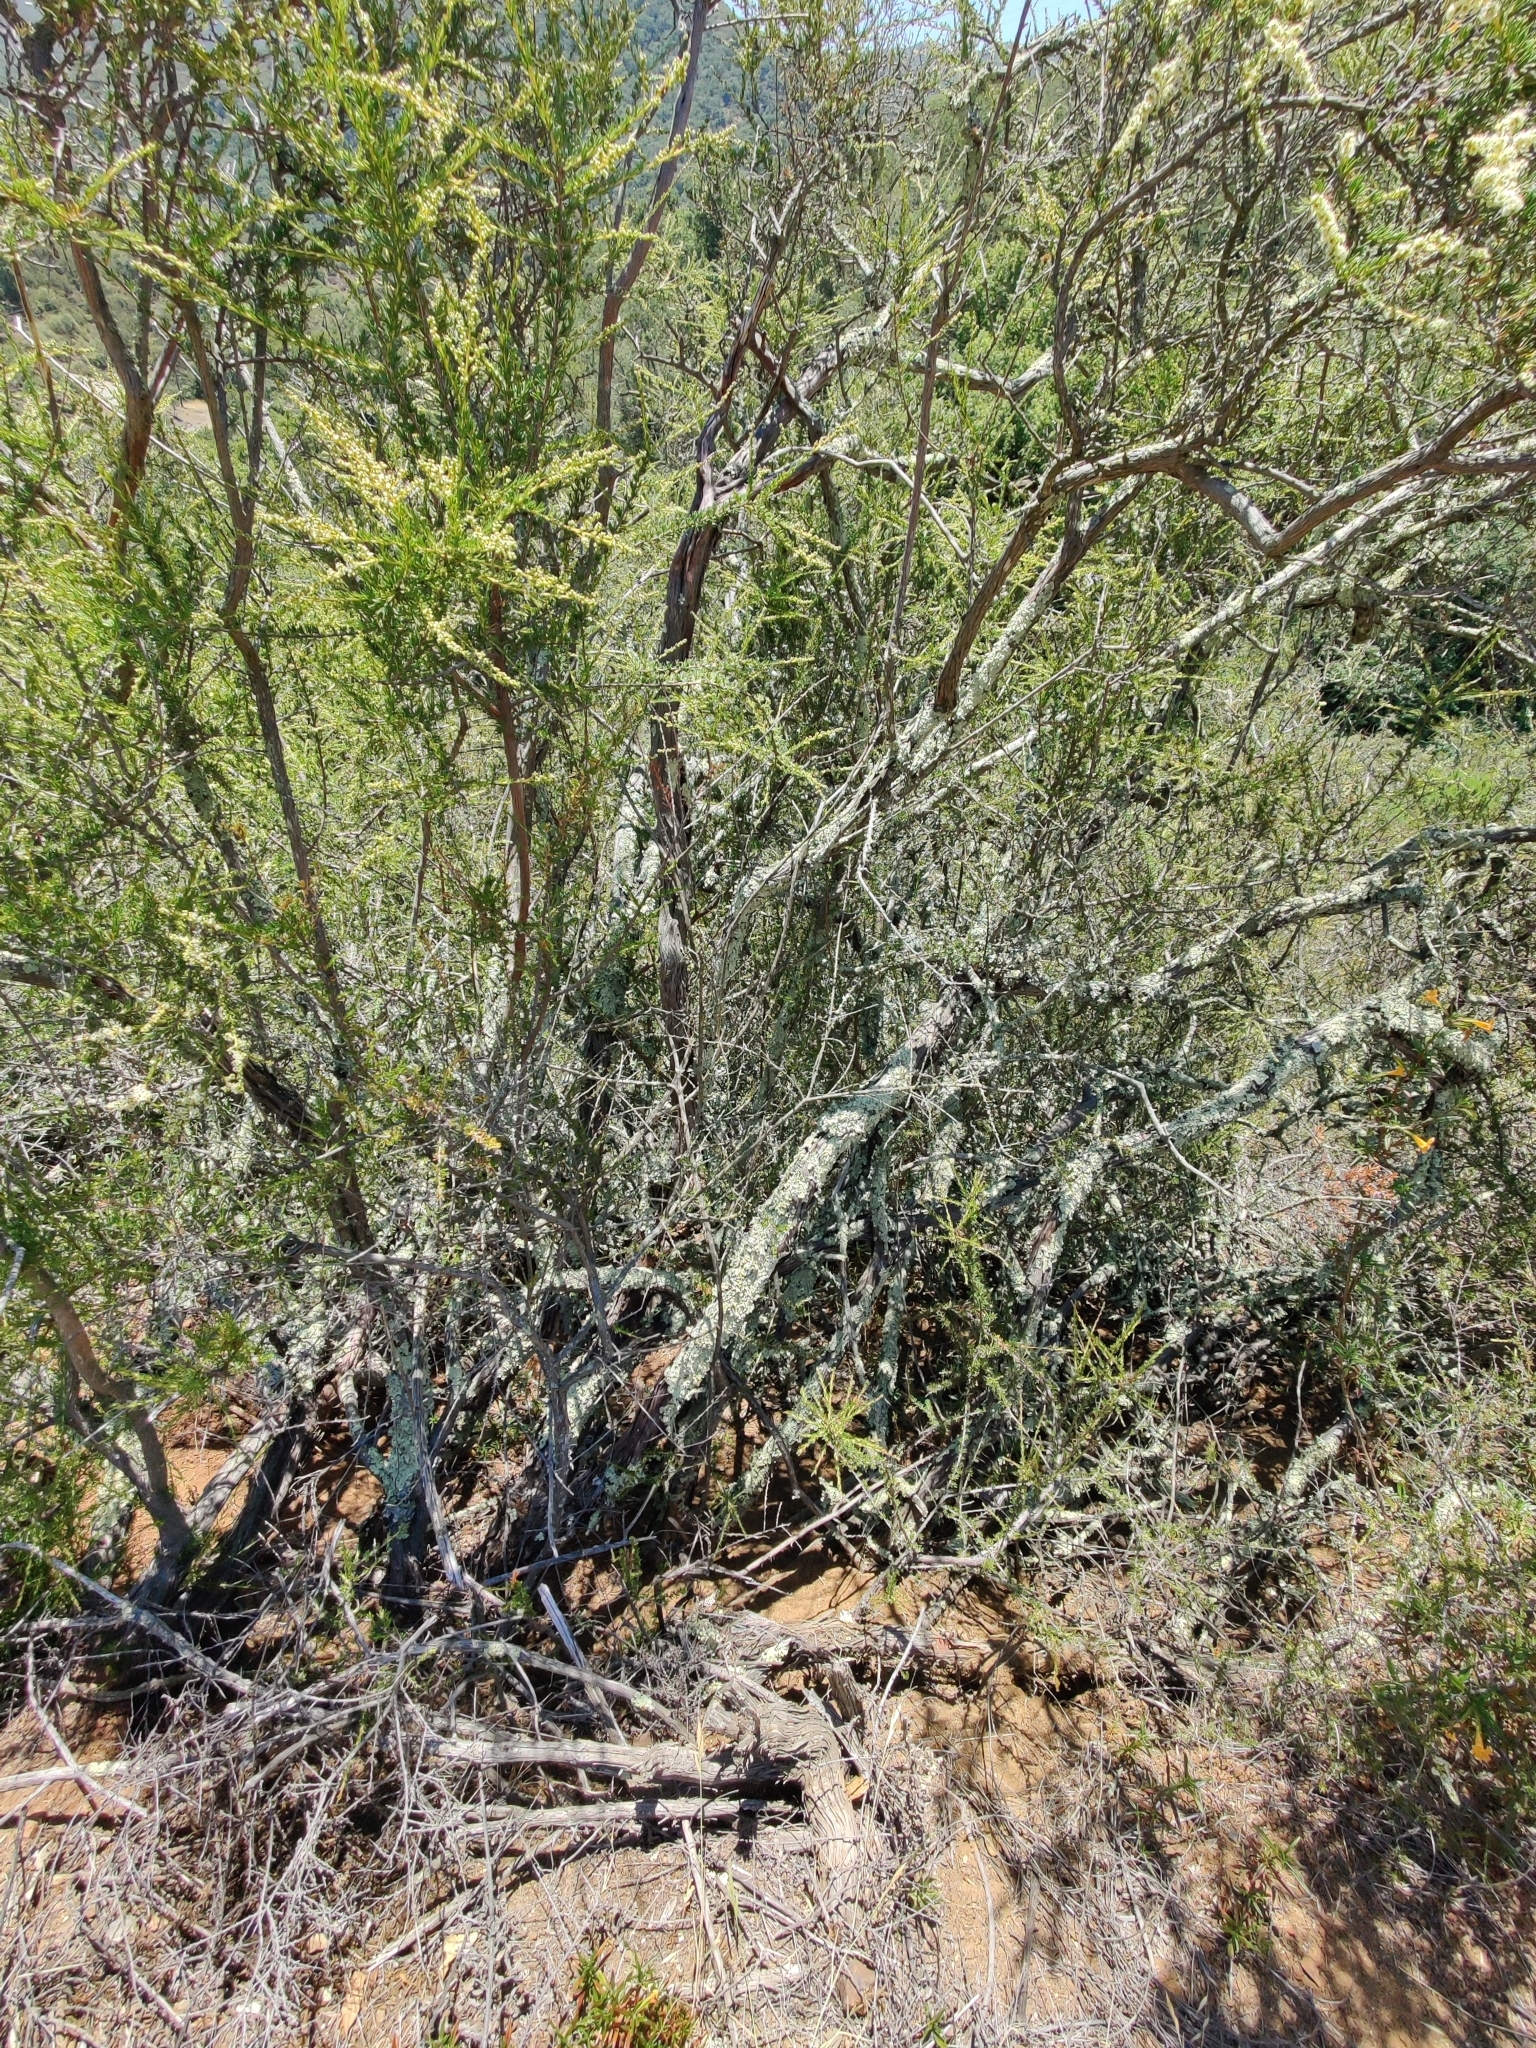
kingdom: Plantae
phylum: Tracheophyta
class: Magnoliopsida
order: Rosales
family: Rosaceae
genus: Adenostoma
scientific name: Adenostoma fasciculatum
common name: Chamise
